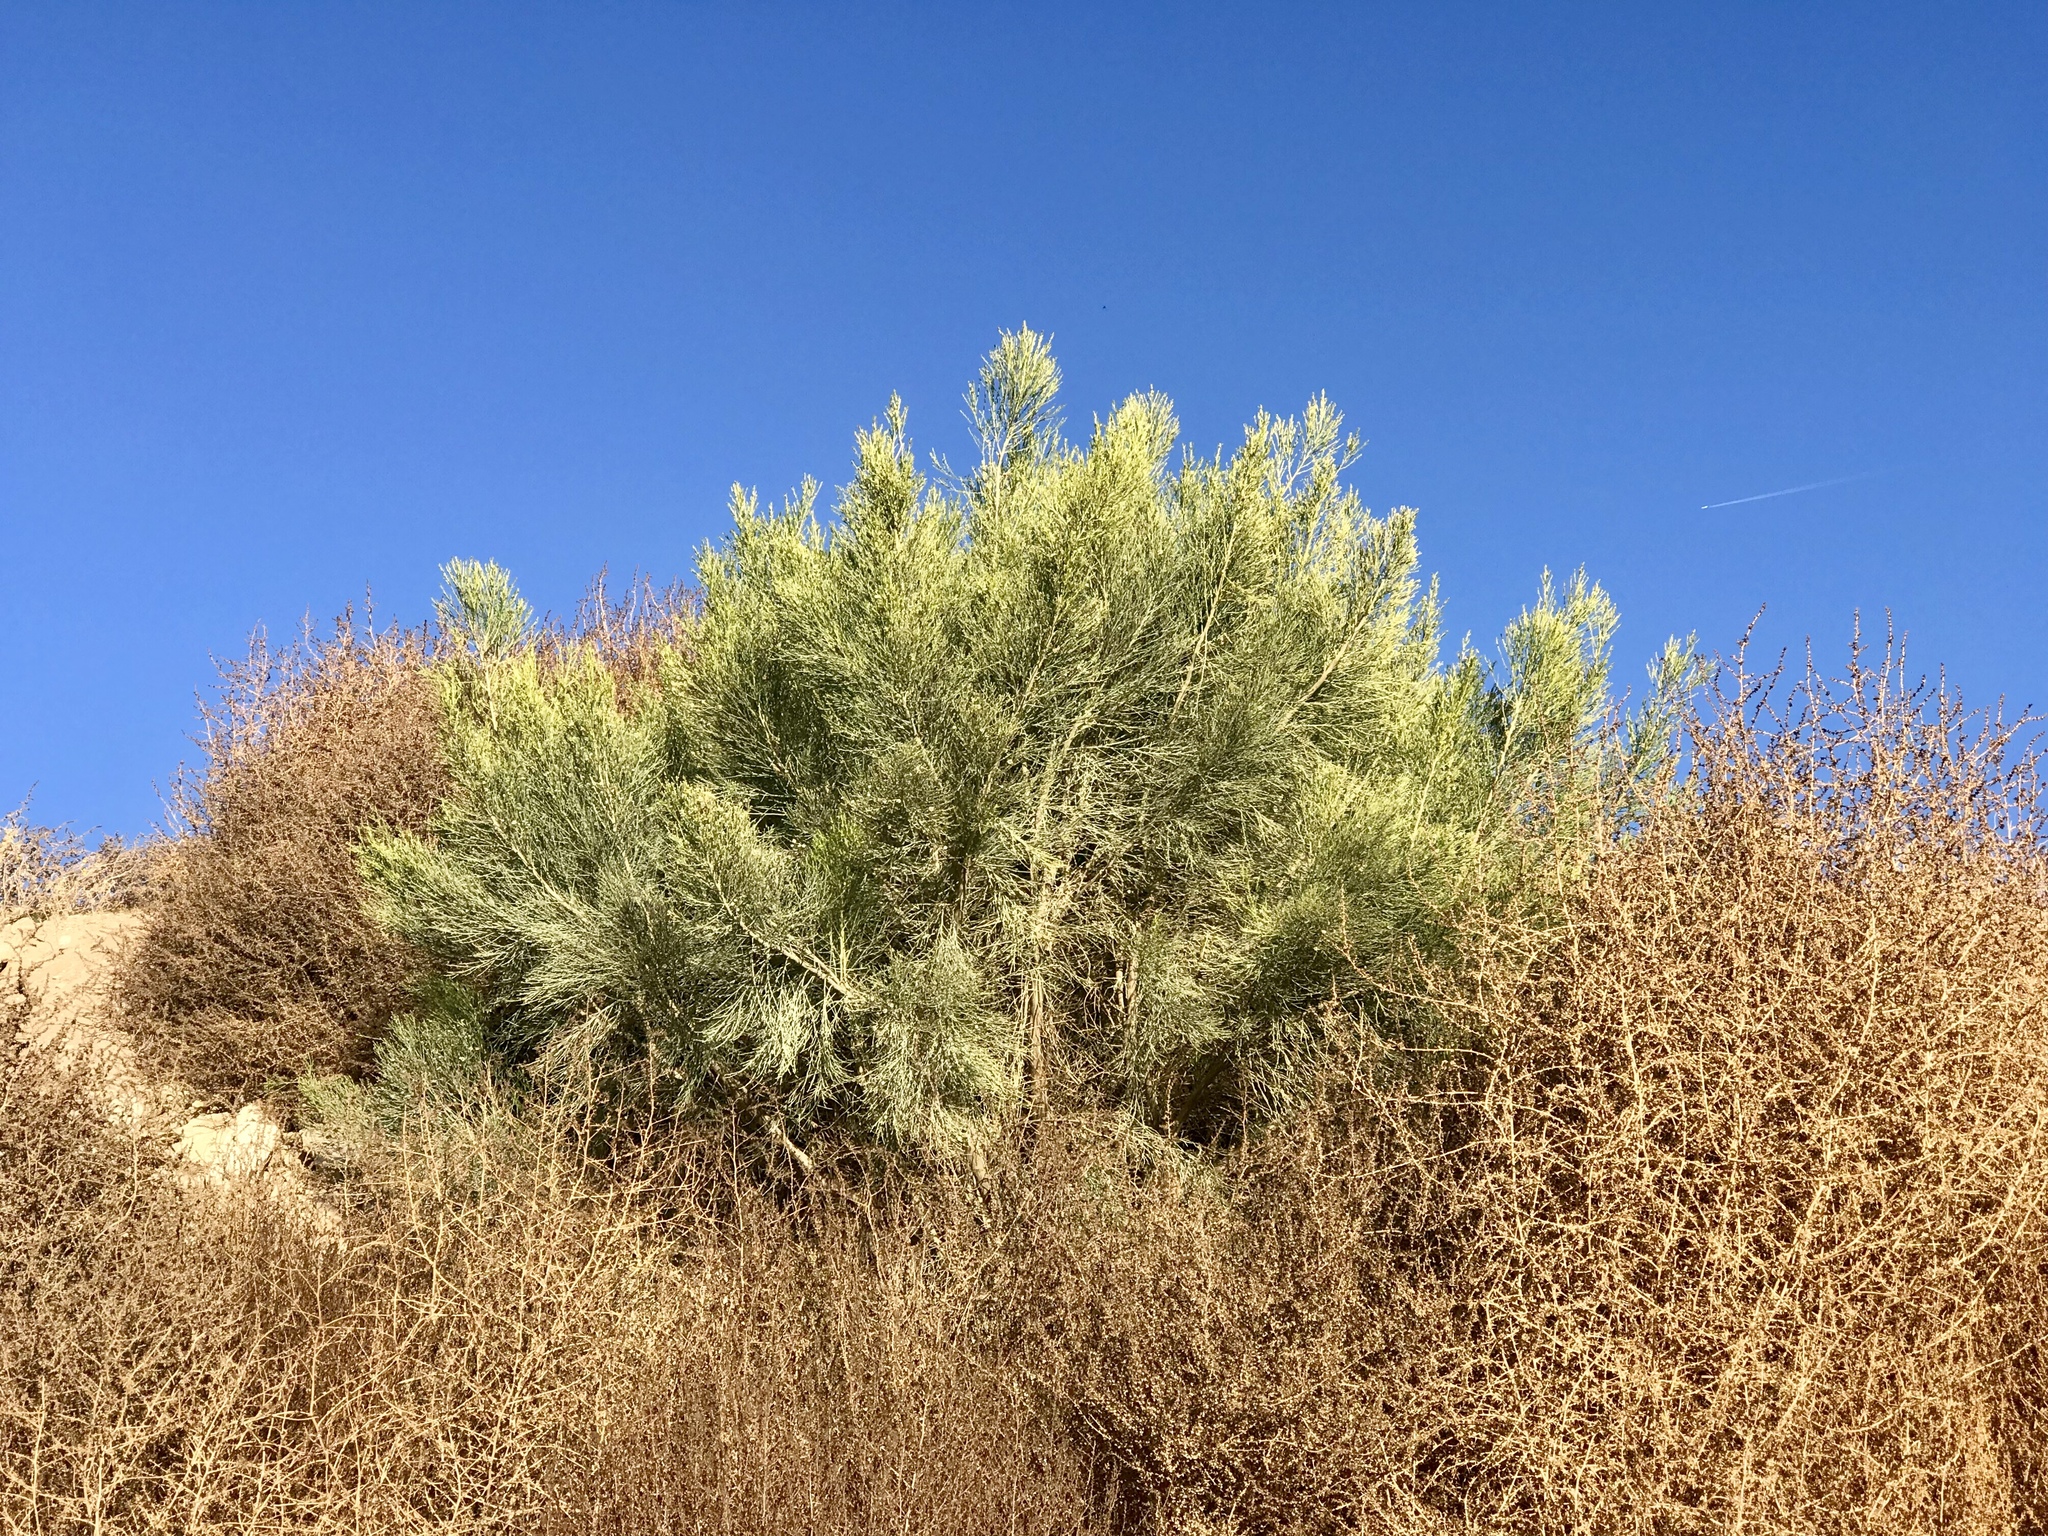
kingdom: Plantae
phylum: Tracheophyta
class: Magnoliopsida
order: Asterales
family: Asteraceae
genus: Baccharis
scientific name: Baccharis sarothroides
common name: Desert-broom
